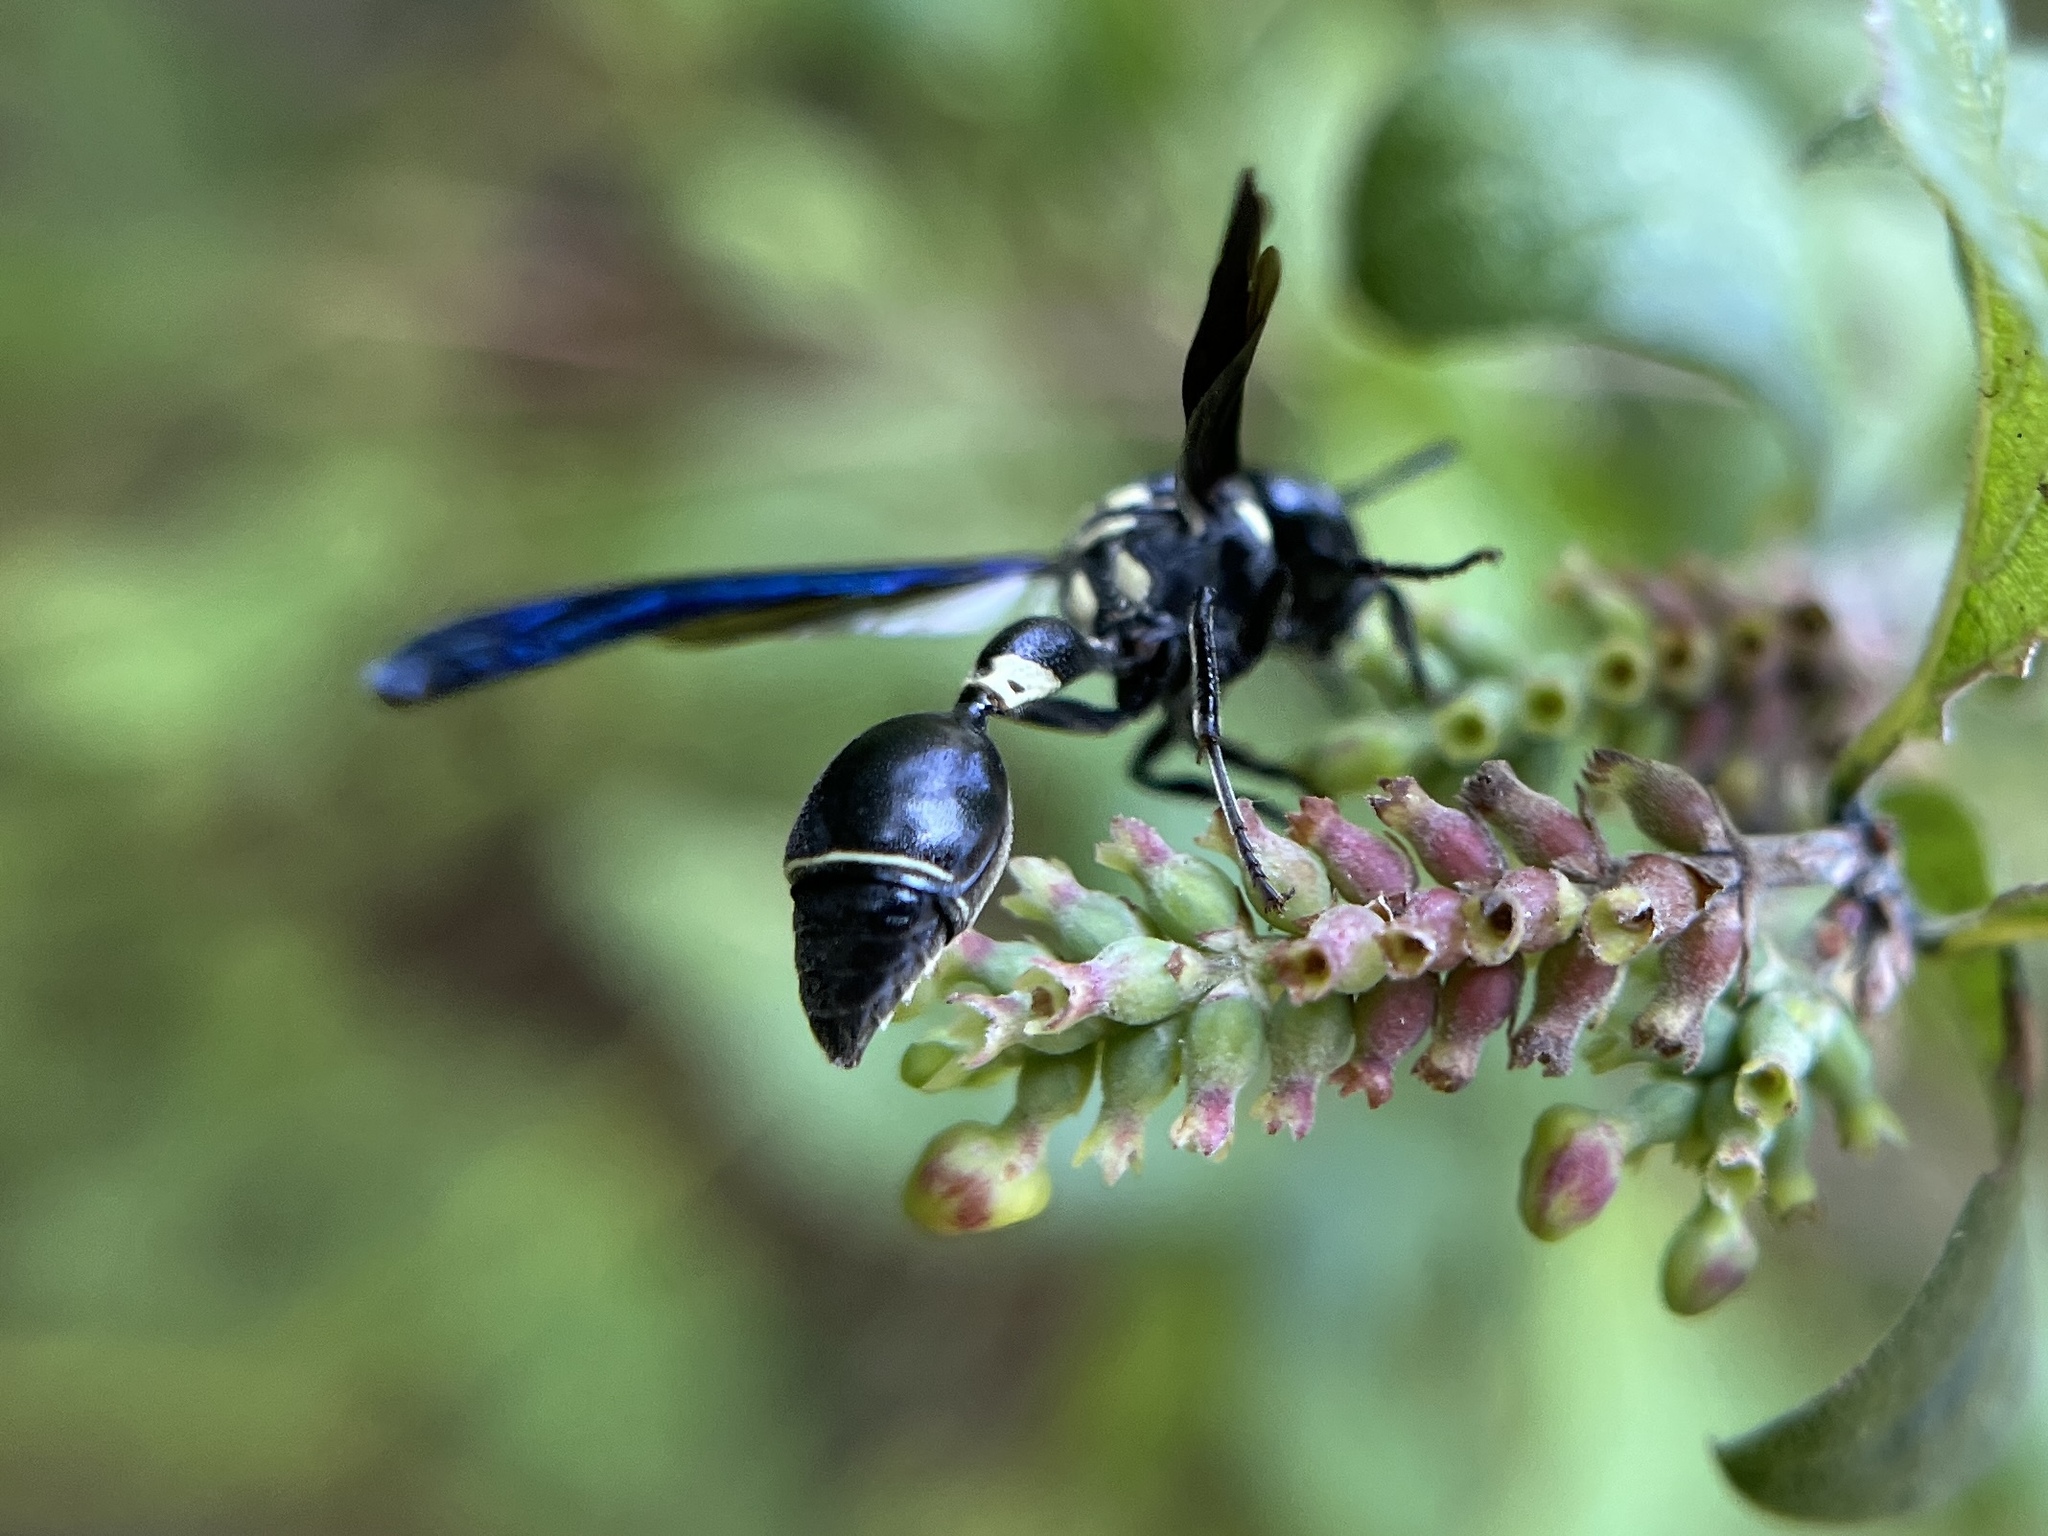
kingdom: Animalia
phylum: Arthropoda
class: Insecta
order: Hymenoptera
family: Eumenidae
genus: Zethus
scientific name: Zethus spinipes
